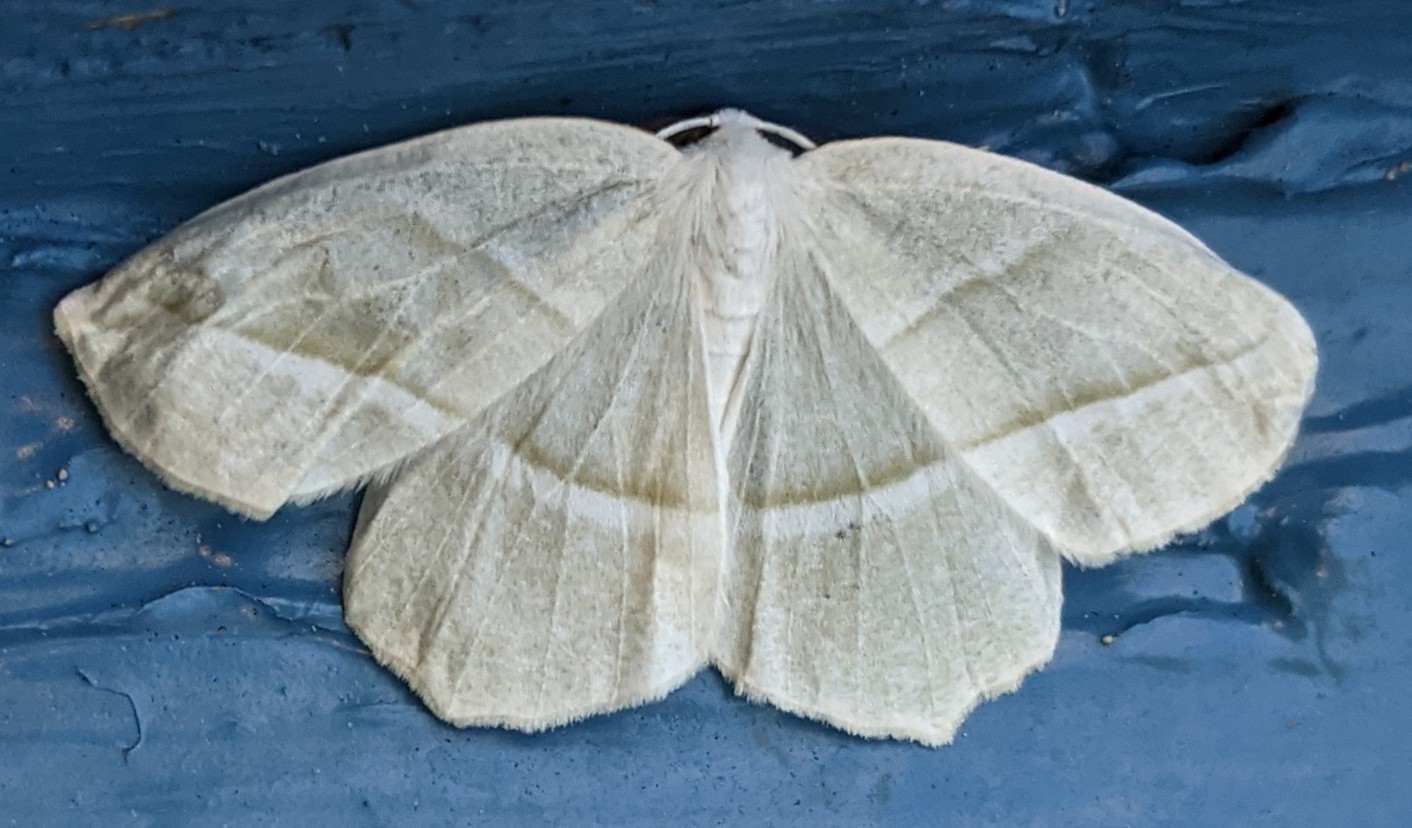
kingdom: Animalia
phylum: Arthropoda
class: Insecta
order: Lepidoptera
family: Geometridae
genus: Campaea
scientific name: Campaea perlata
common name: Fringed looper
